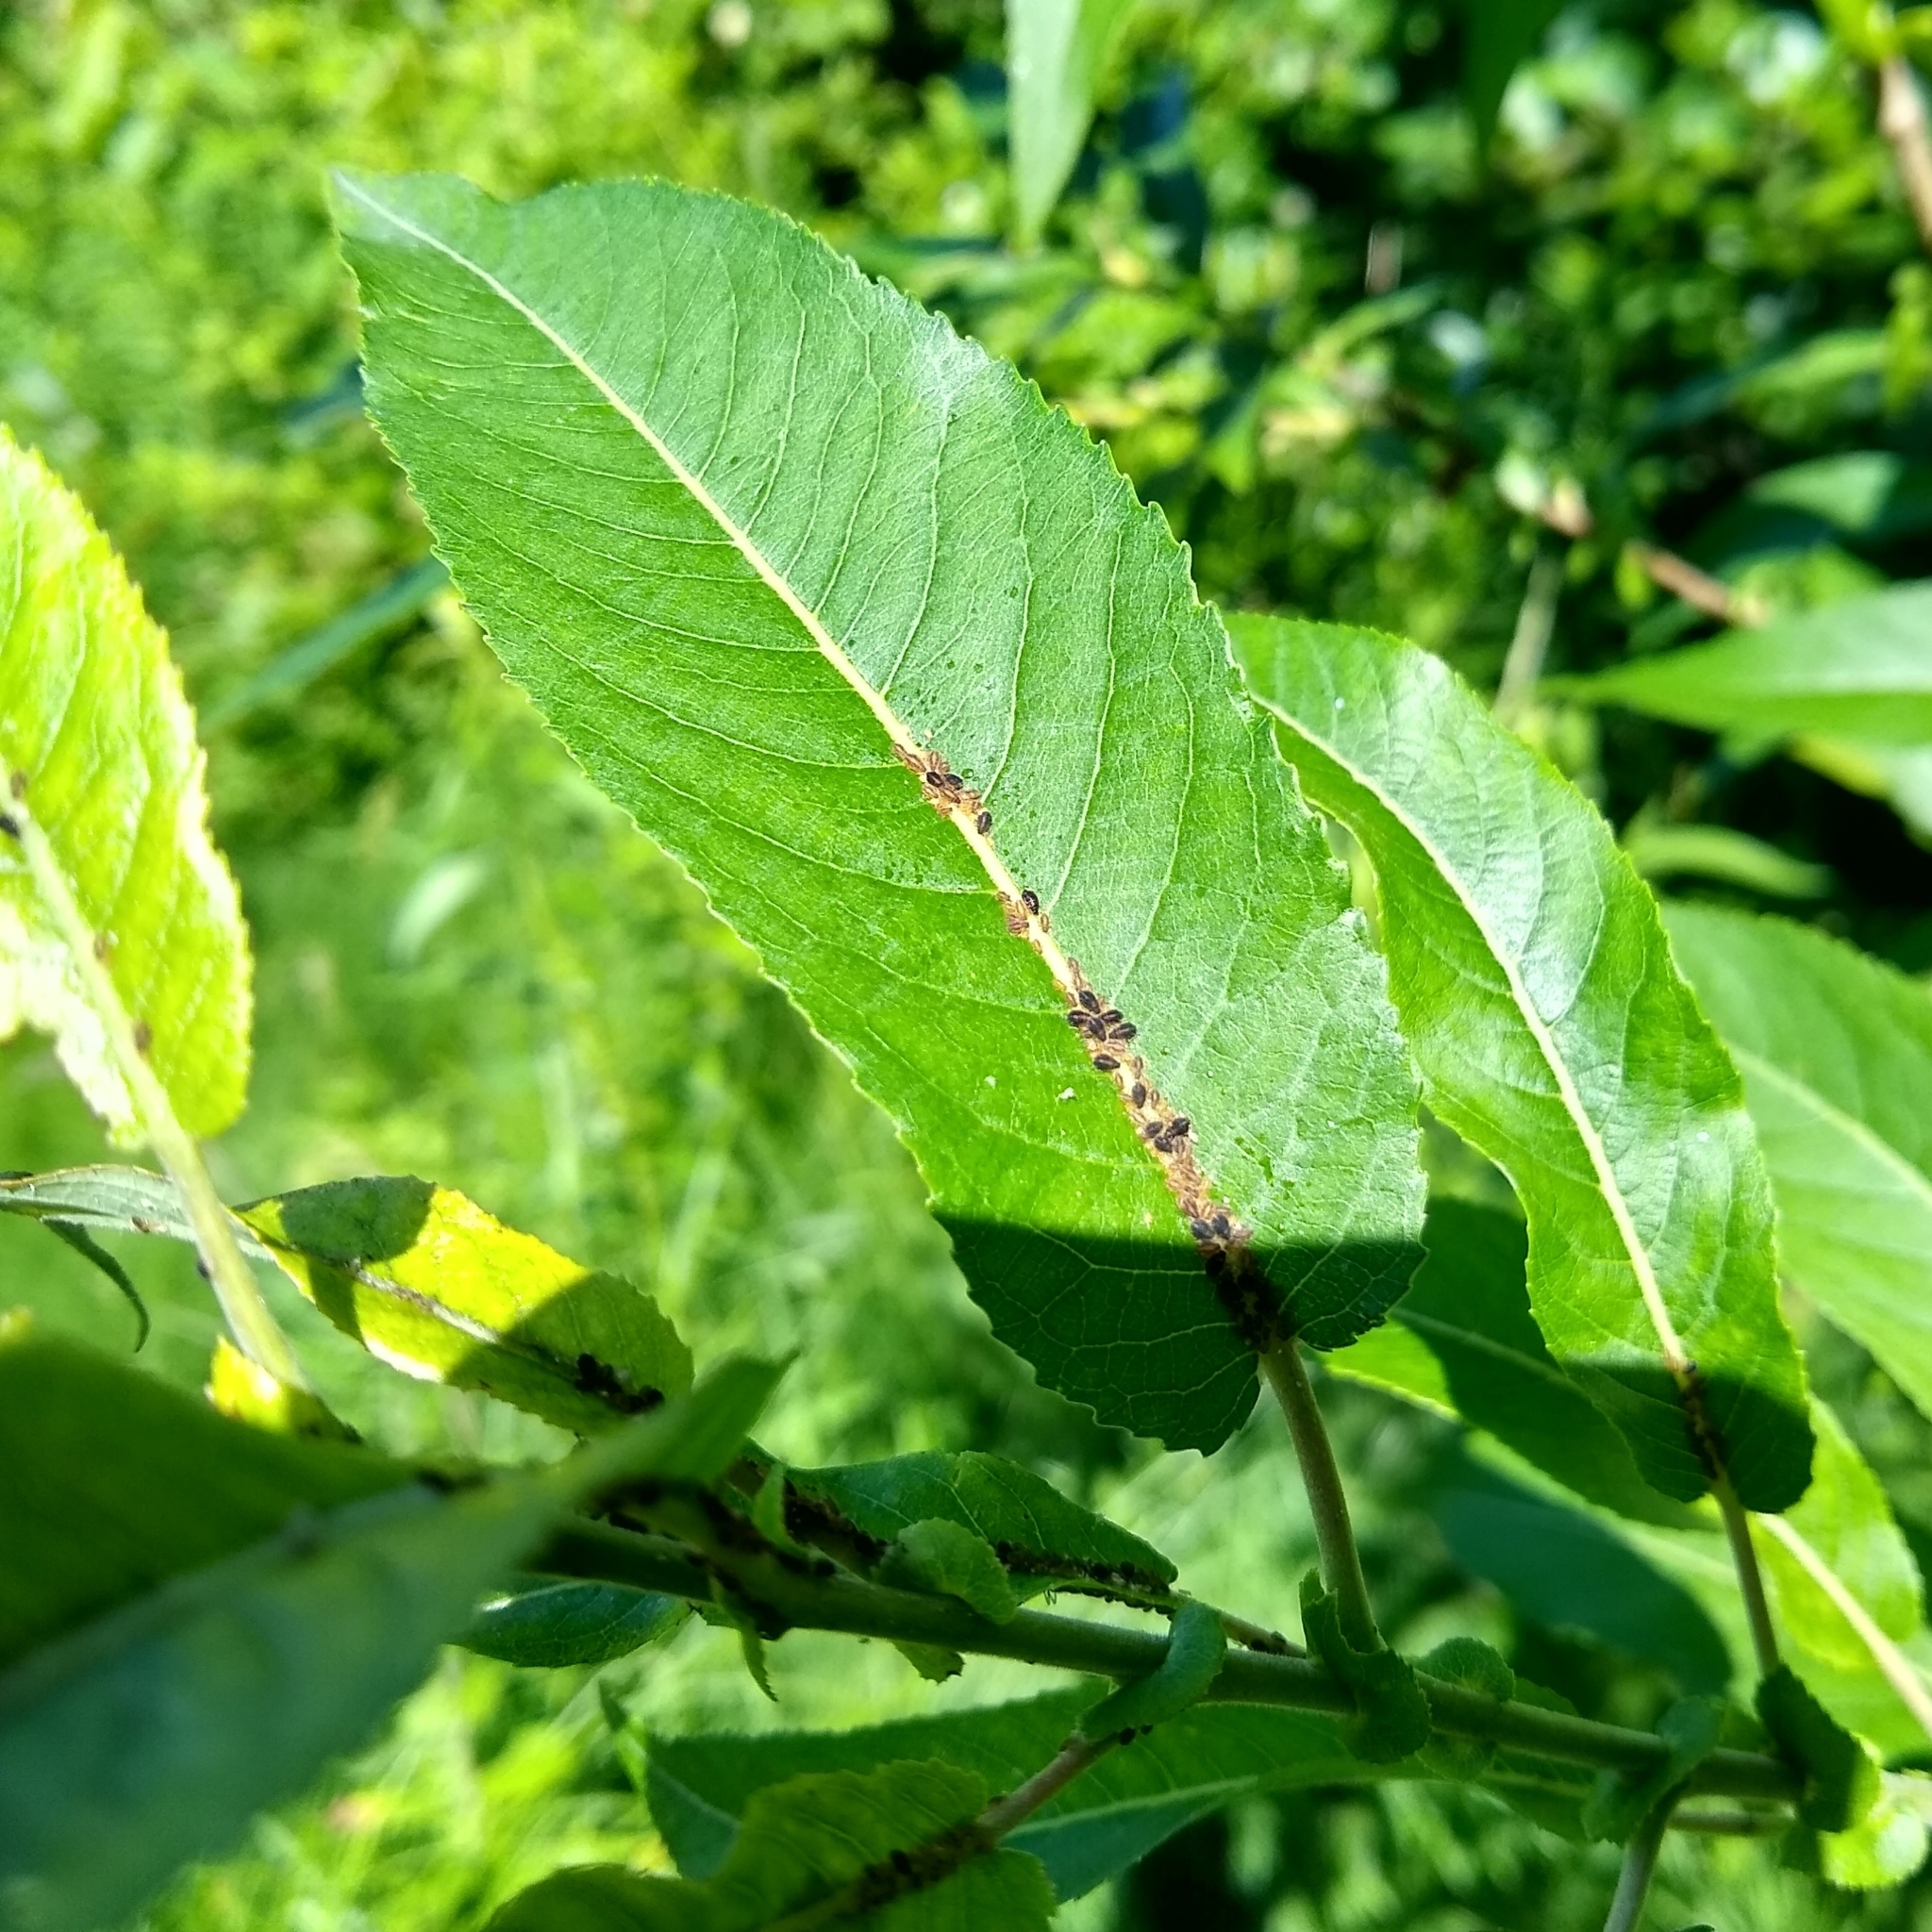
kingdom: Plantae
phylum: Tracheophyta
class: Magnoliopsida
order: Malpighiales
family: Salicaceae
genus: Salix
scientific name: Salix eriocephala
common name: Heart-leaved willow
